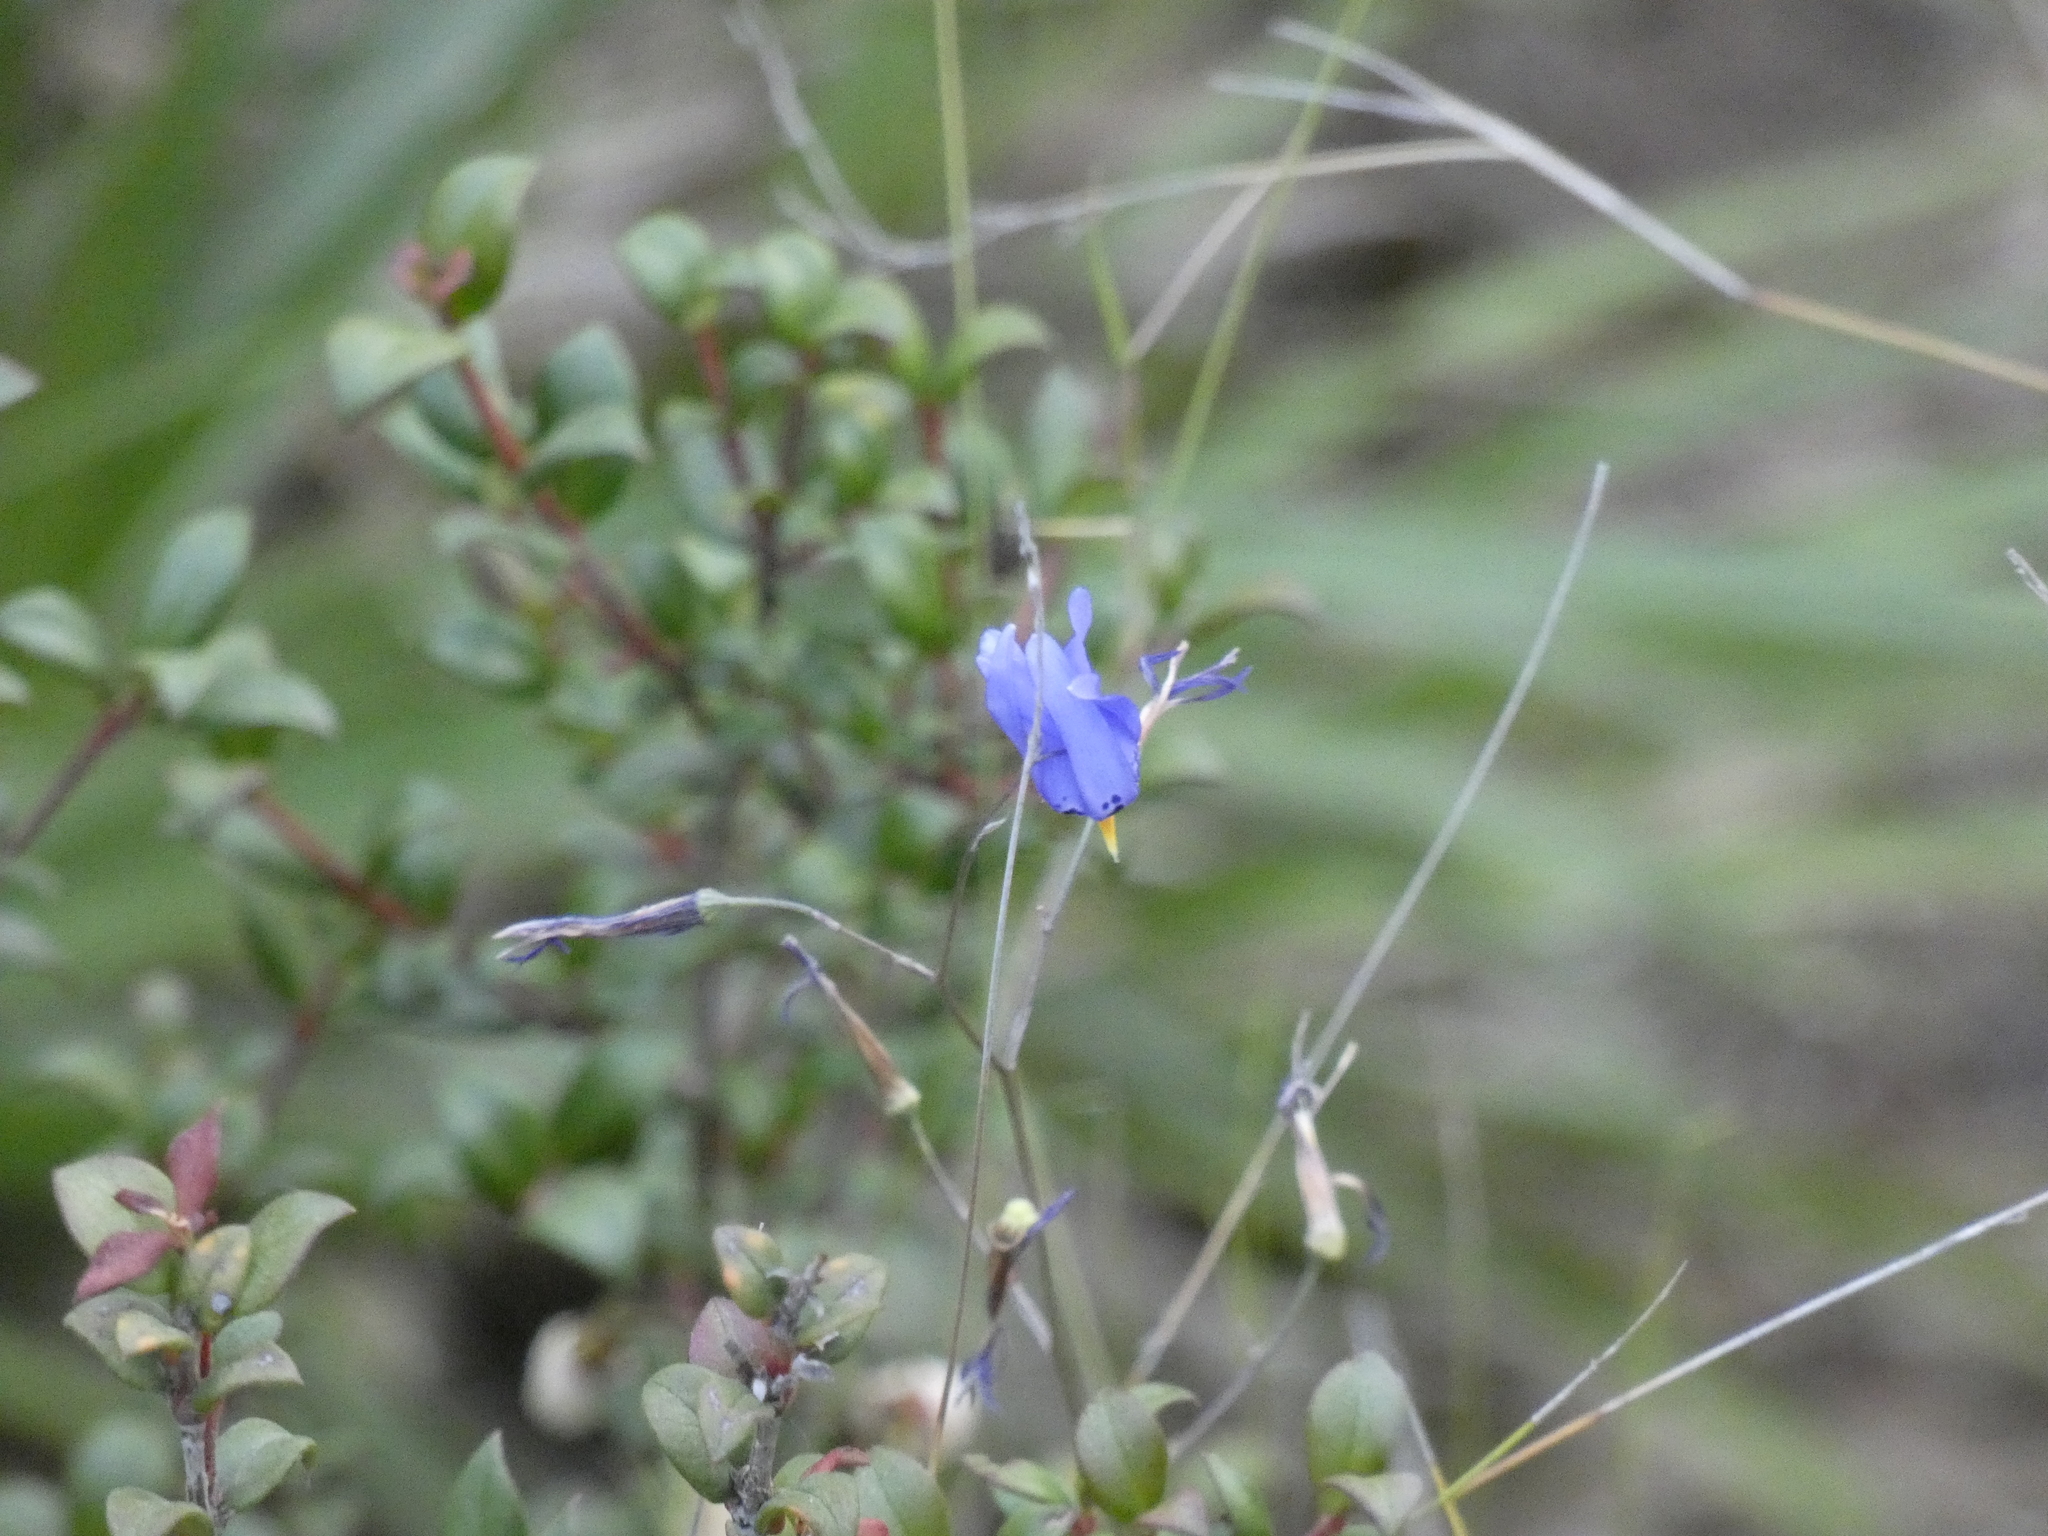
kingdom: Plantae
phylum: Tracheophyta
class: Liliopsida
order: Asparagales
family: Tecophilaeaceae
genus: Conanthera
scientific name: Conanthera bifolia
